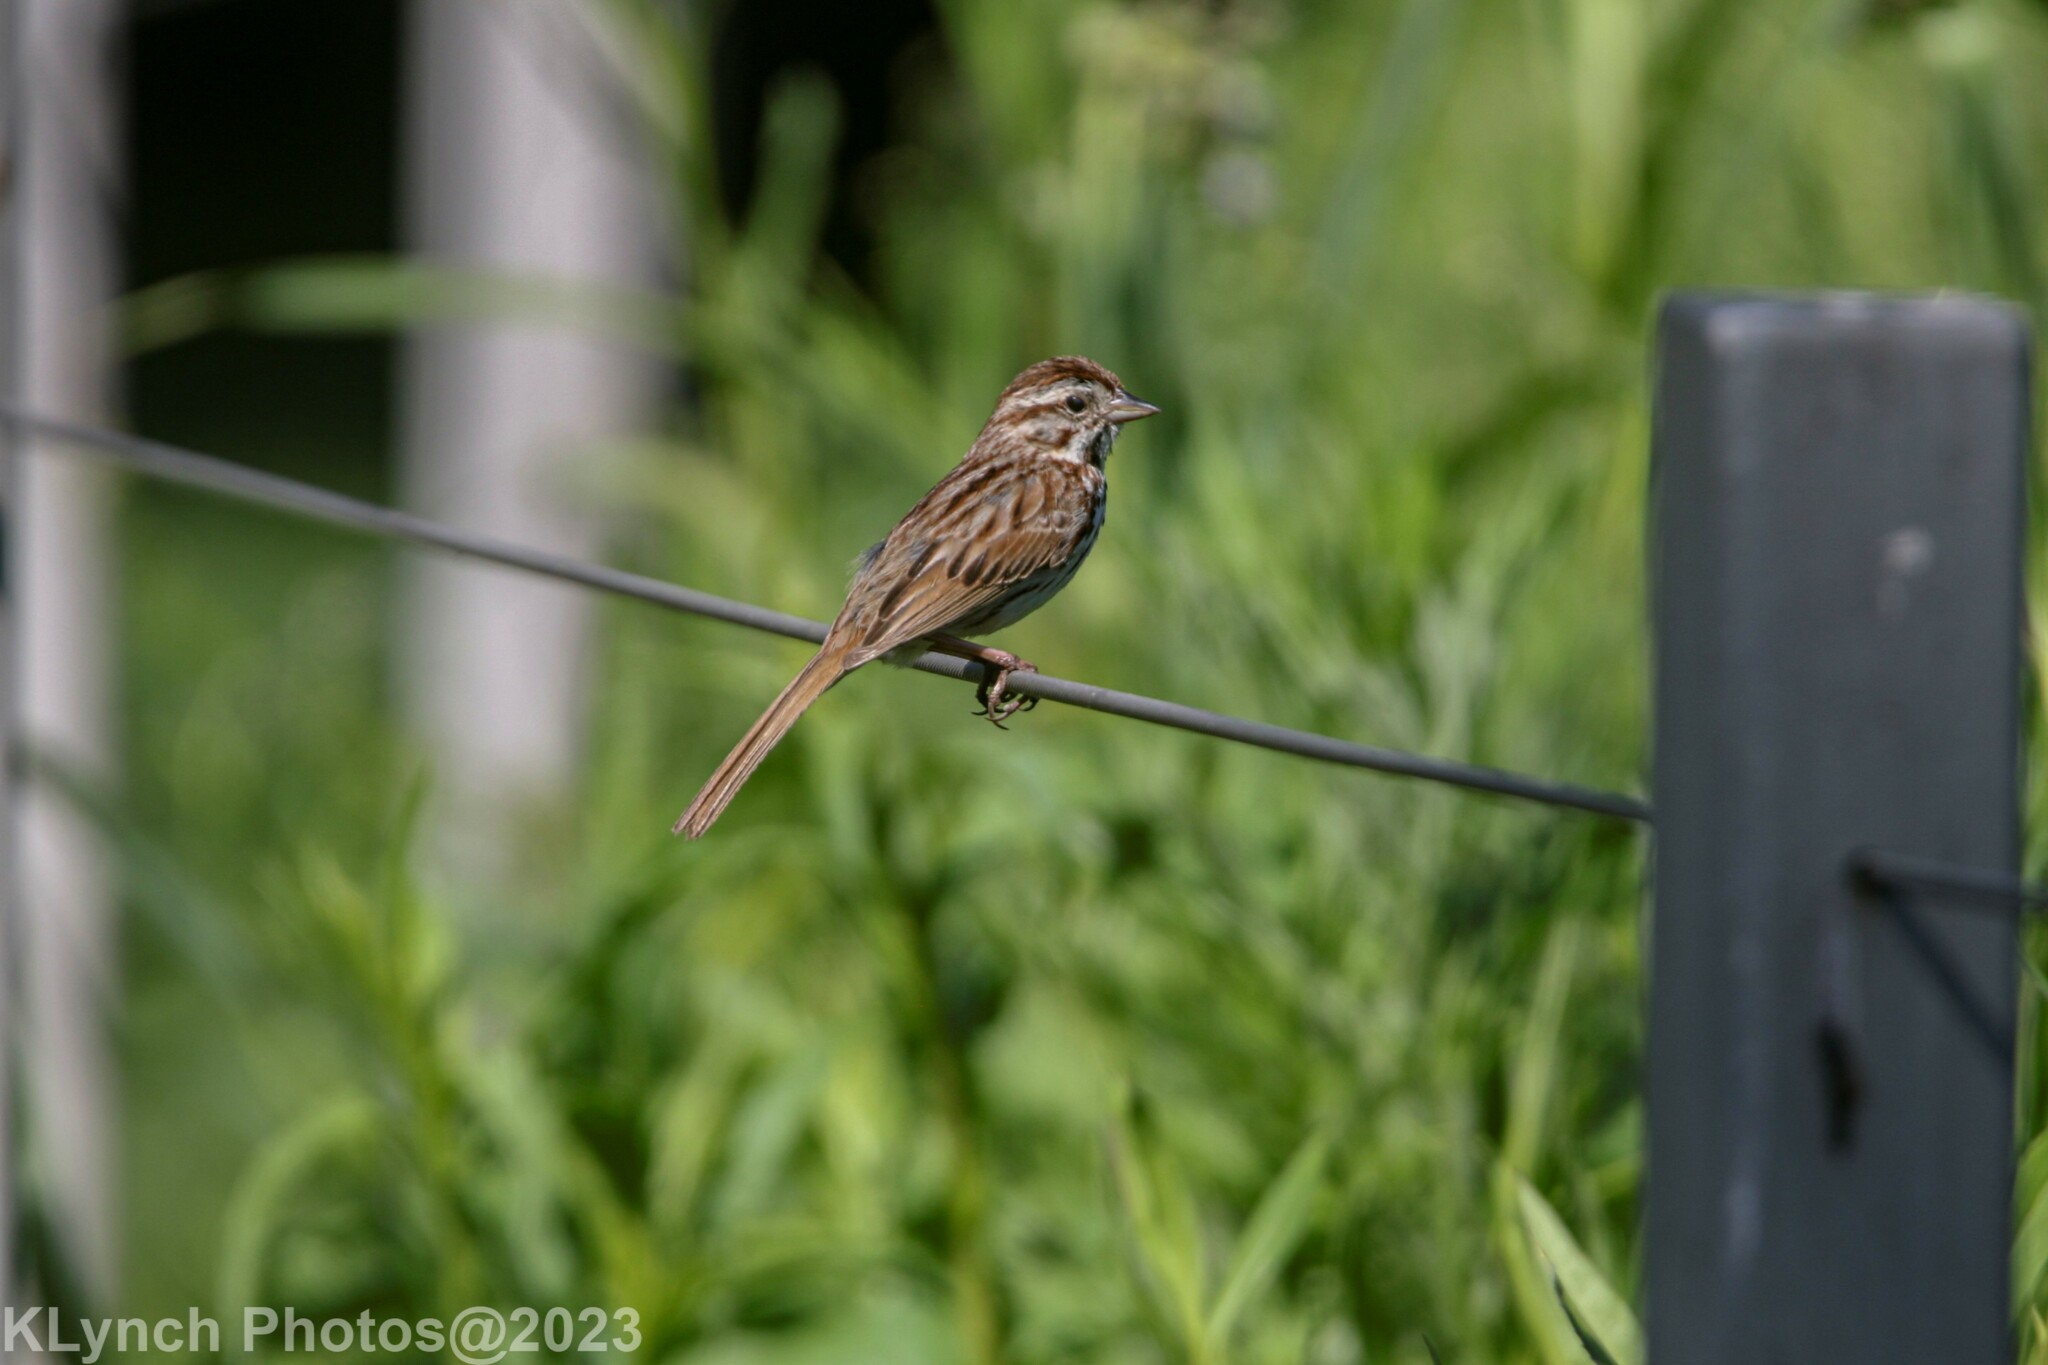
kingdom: Animalia
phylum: Chordata
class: Aves
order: Passeriformes
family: Passerellidae
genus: Melospiza
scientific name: Melospiza melodia
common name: Song sparrow
